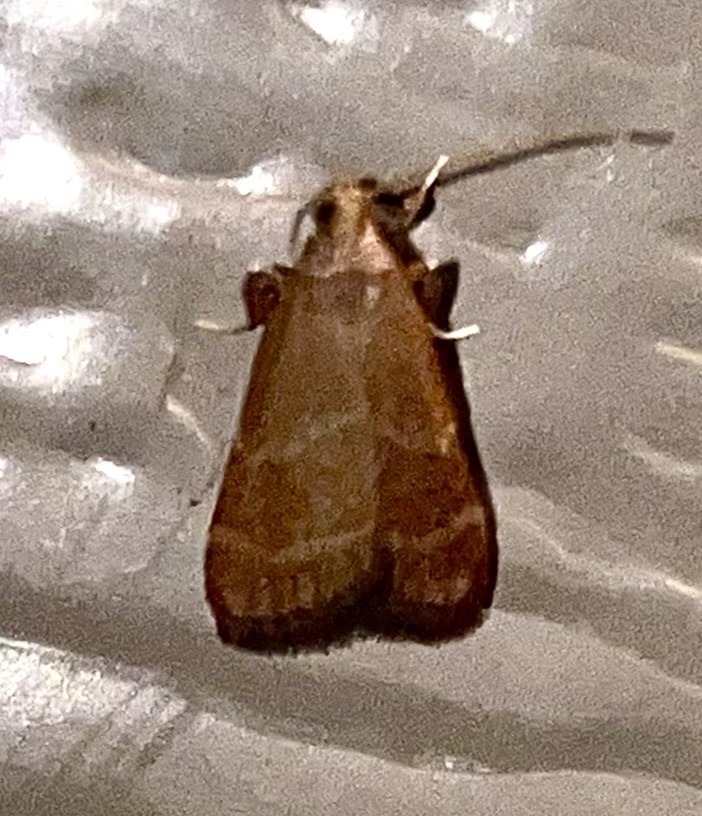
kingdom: Animalia
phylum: Arthropoda
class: Insecta
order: Lepidoptera
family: Pyralidae
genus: Arta
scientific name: Arta epicoenalis
